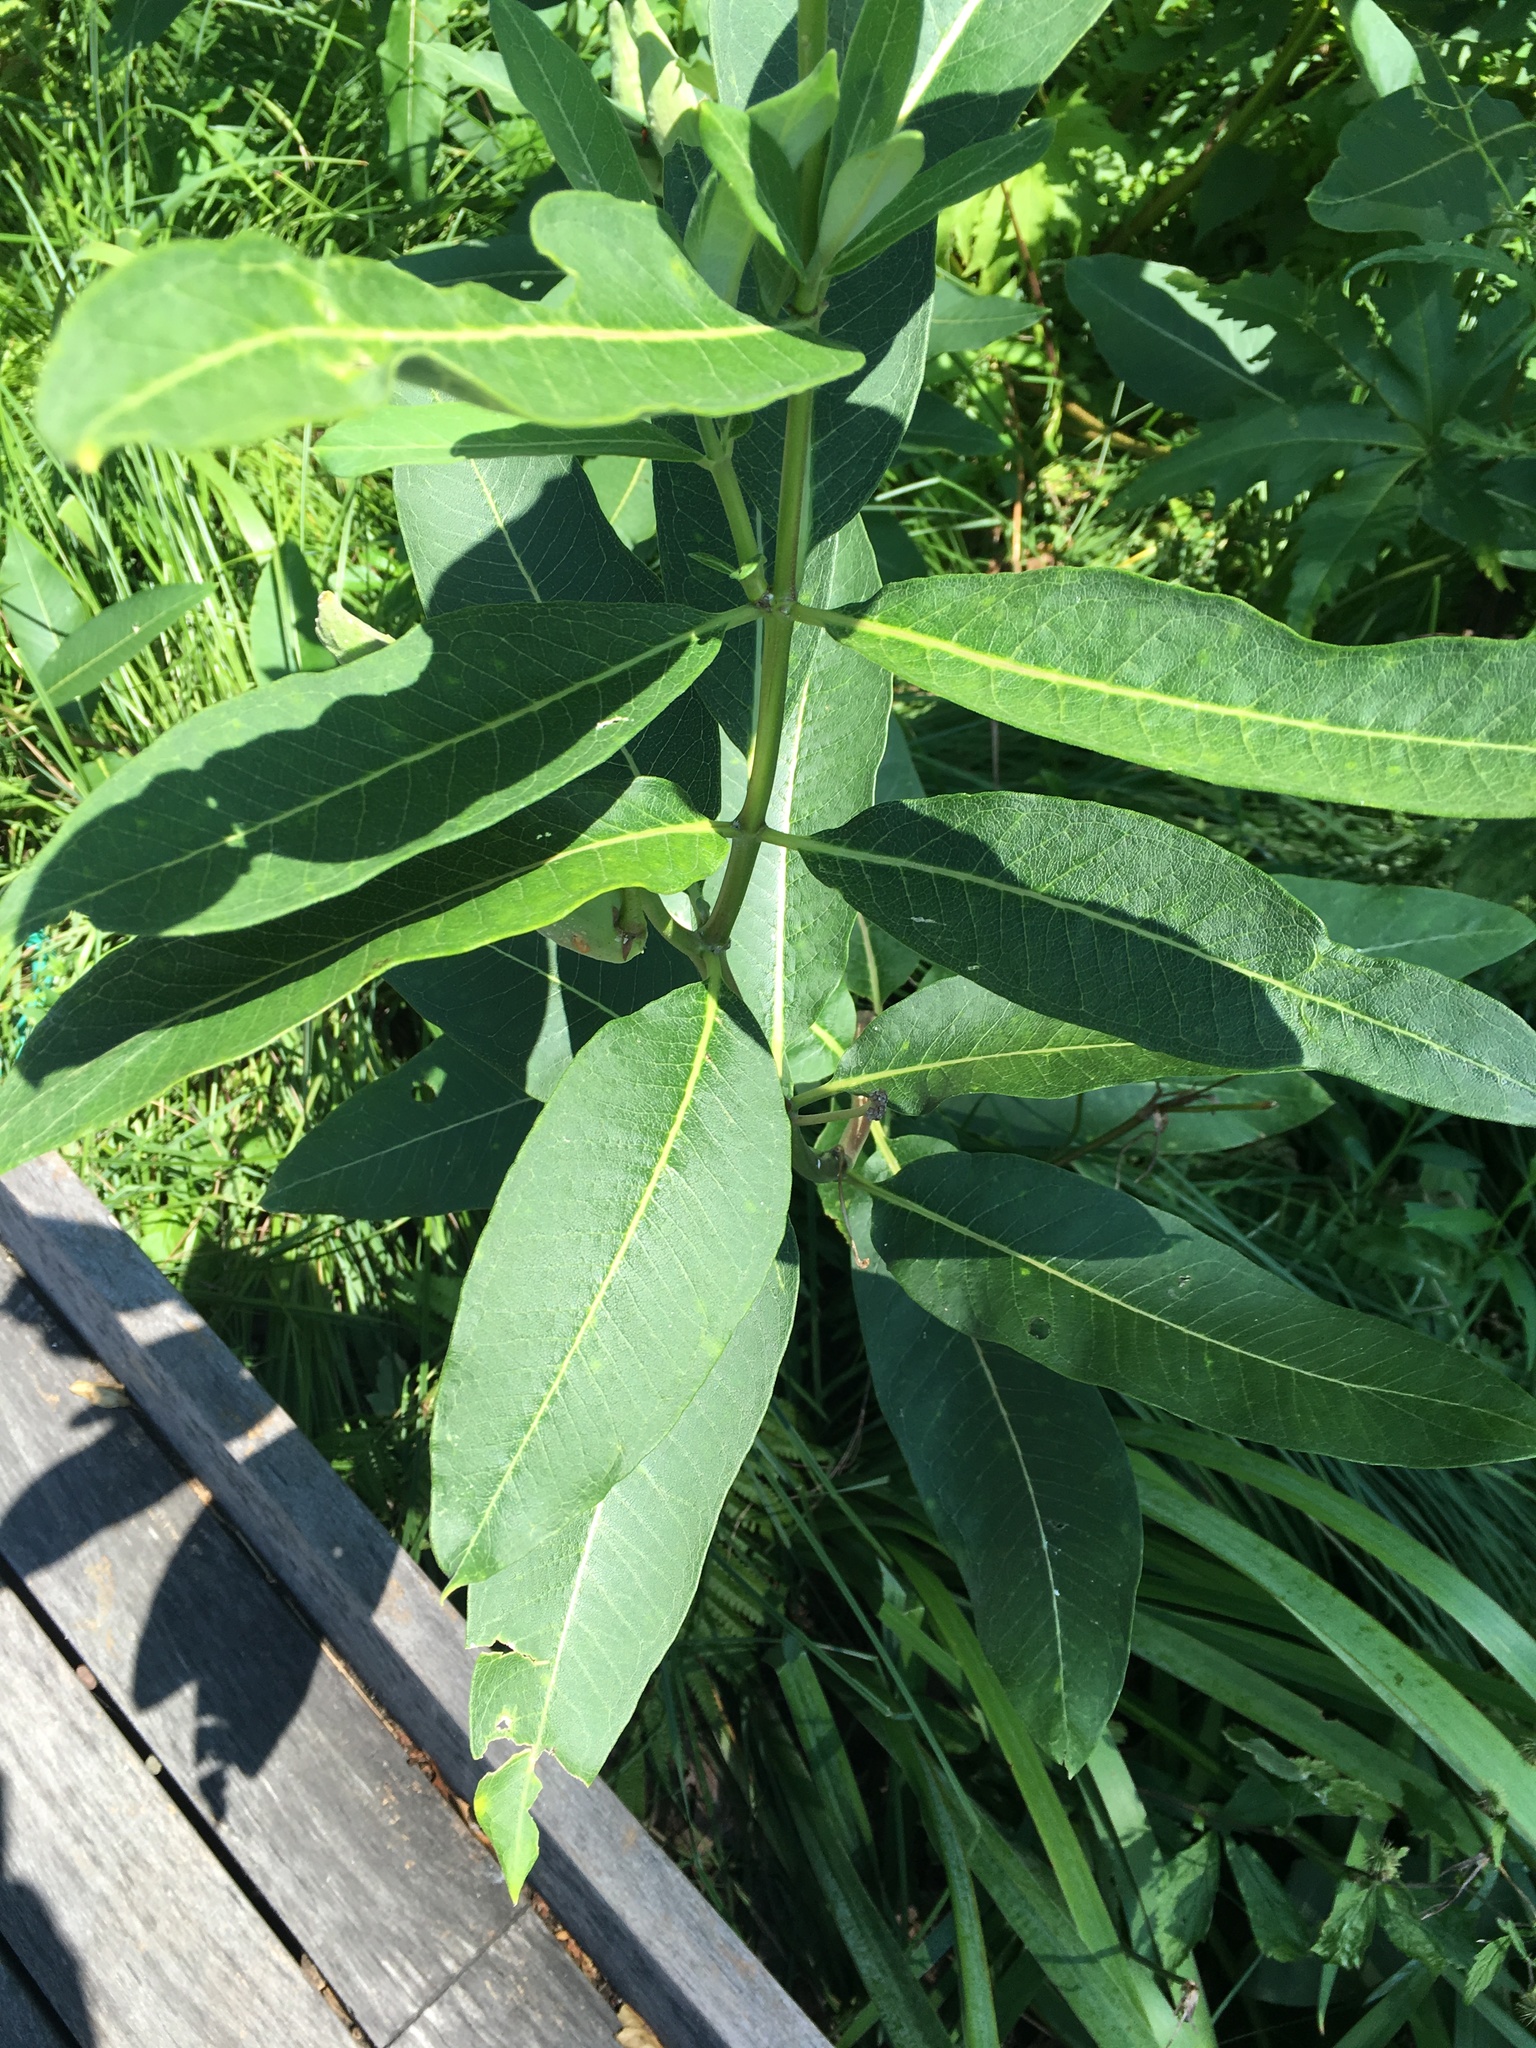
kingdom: Plantae
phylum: Tracheophyta
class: Magnoliopsida
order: Gentianales
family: Apocynaceae
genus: Asclepias
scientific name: Asclepias syriaca
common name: Common milkweed
